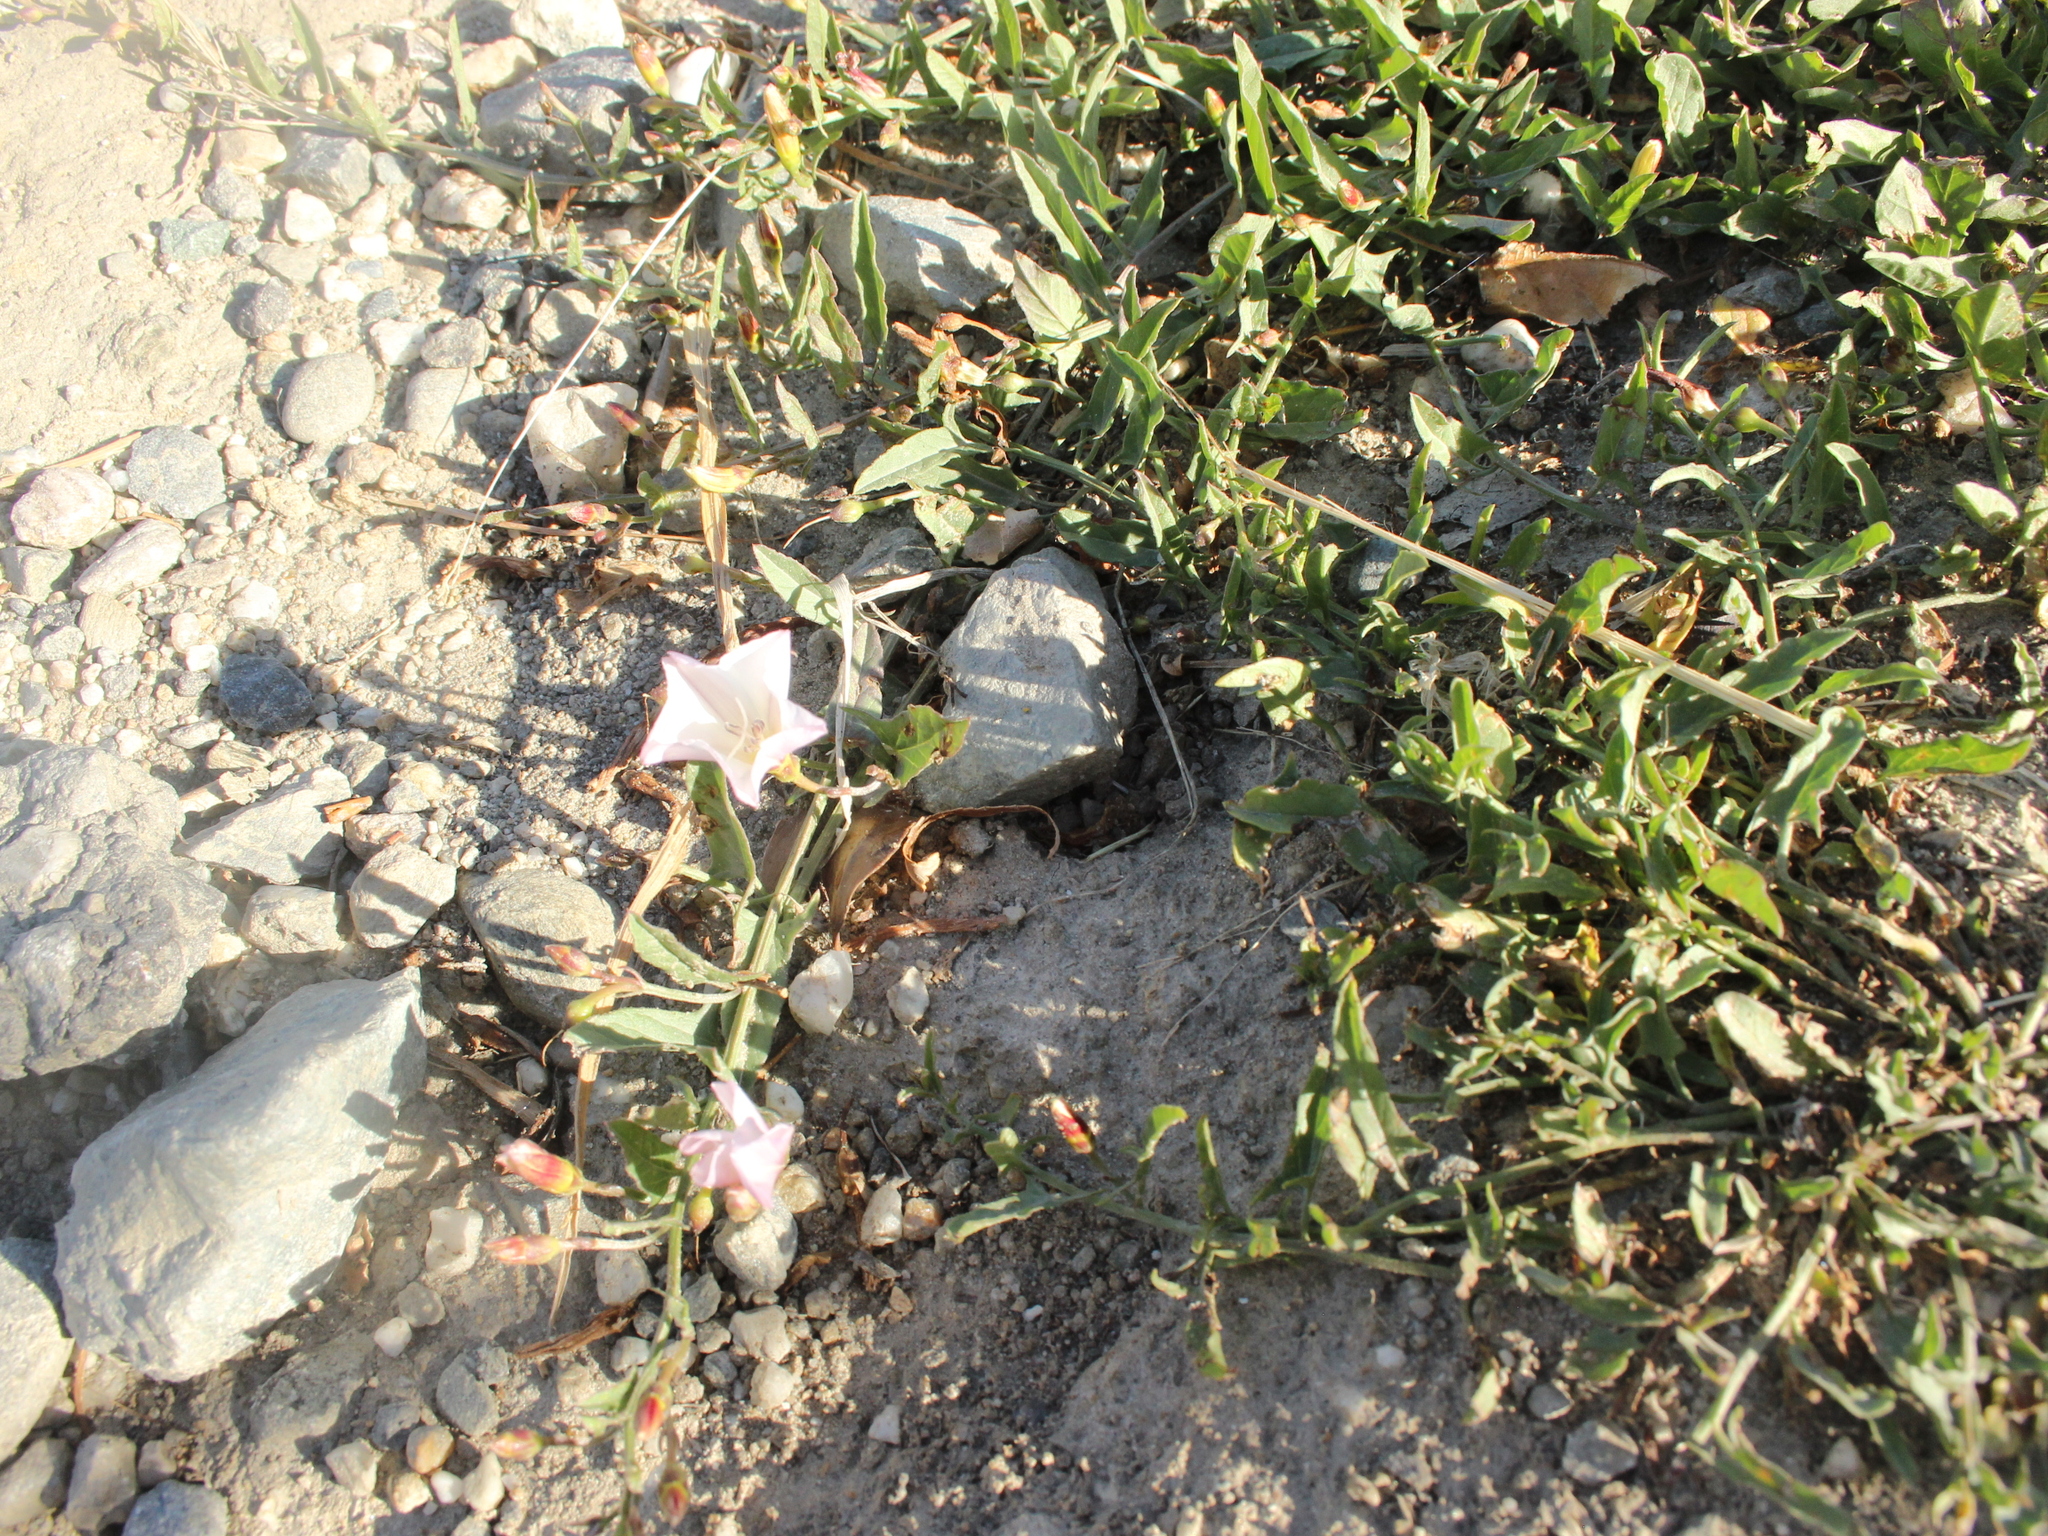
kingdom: Plantae
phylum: Tracheophyta
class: Magnoliopsida
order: Solanales
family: Convolvulaceae
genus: Convolvulus
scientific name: Convolvulus arvensis
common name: Field bindweed
